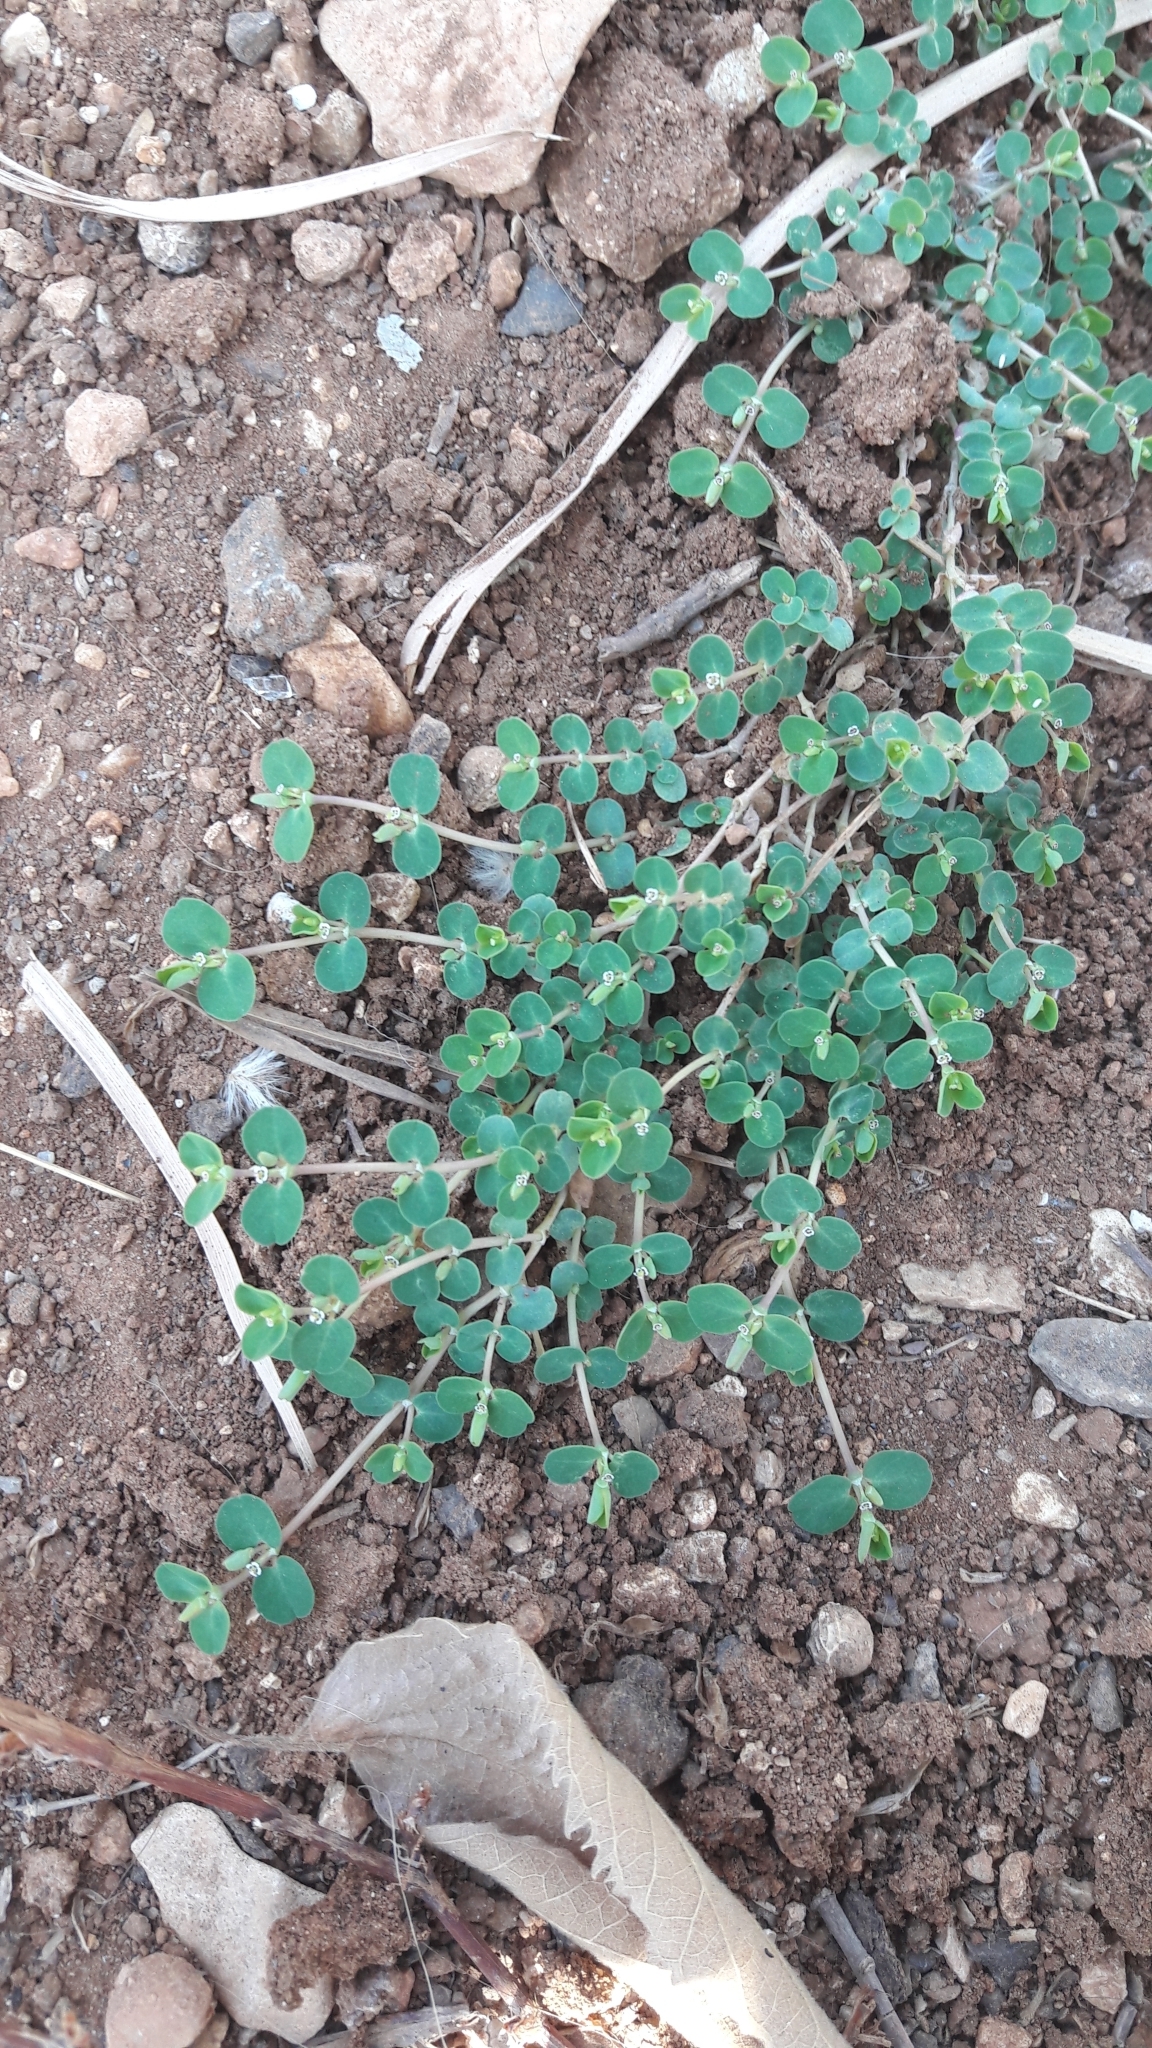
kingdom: Plantae
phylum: Tracheophyta
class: Magnoliopsida
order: Malpighiales
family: Euphorbiaceae
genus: Euphorbia
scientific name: Euphorbia serpens
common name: Matted sandmat
